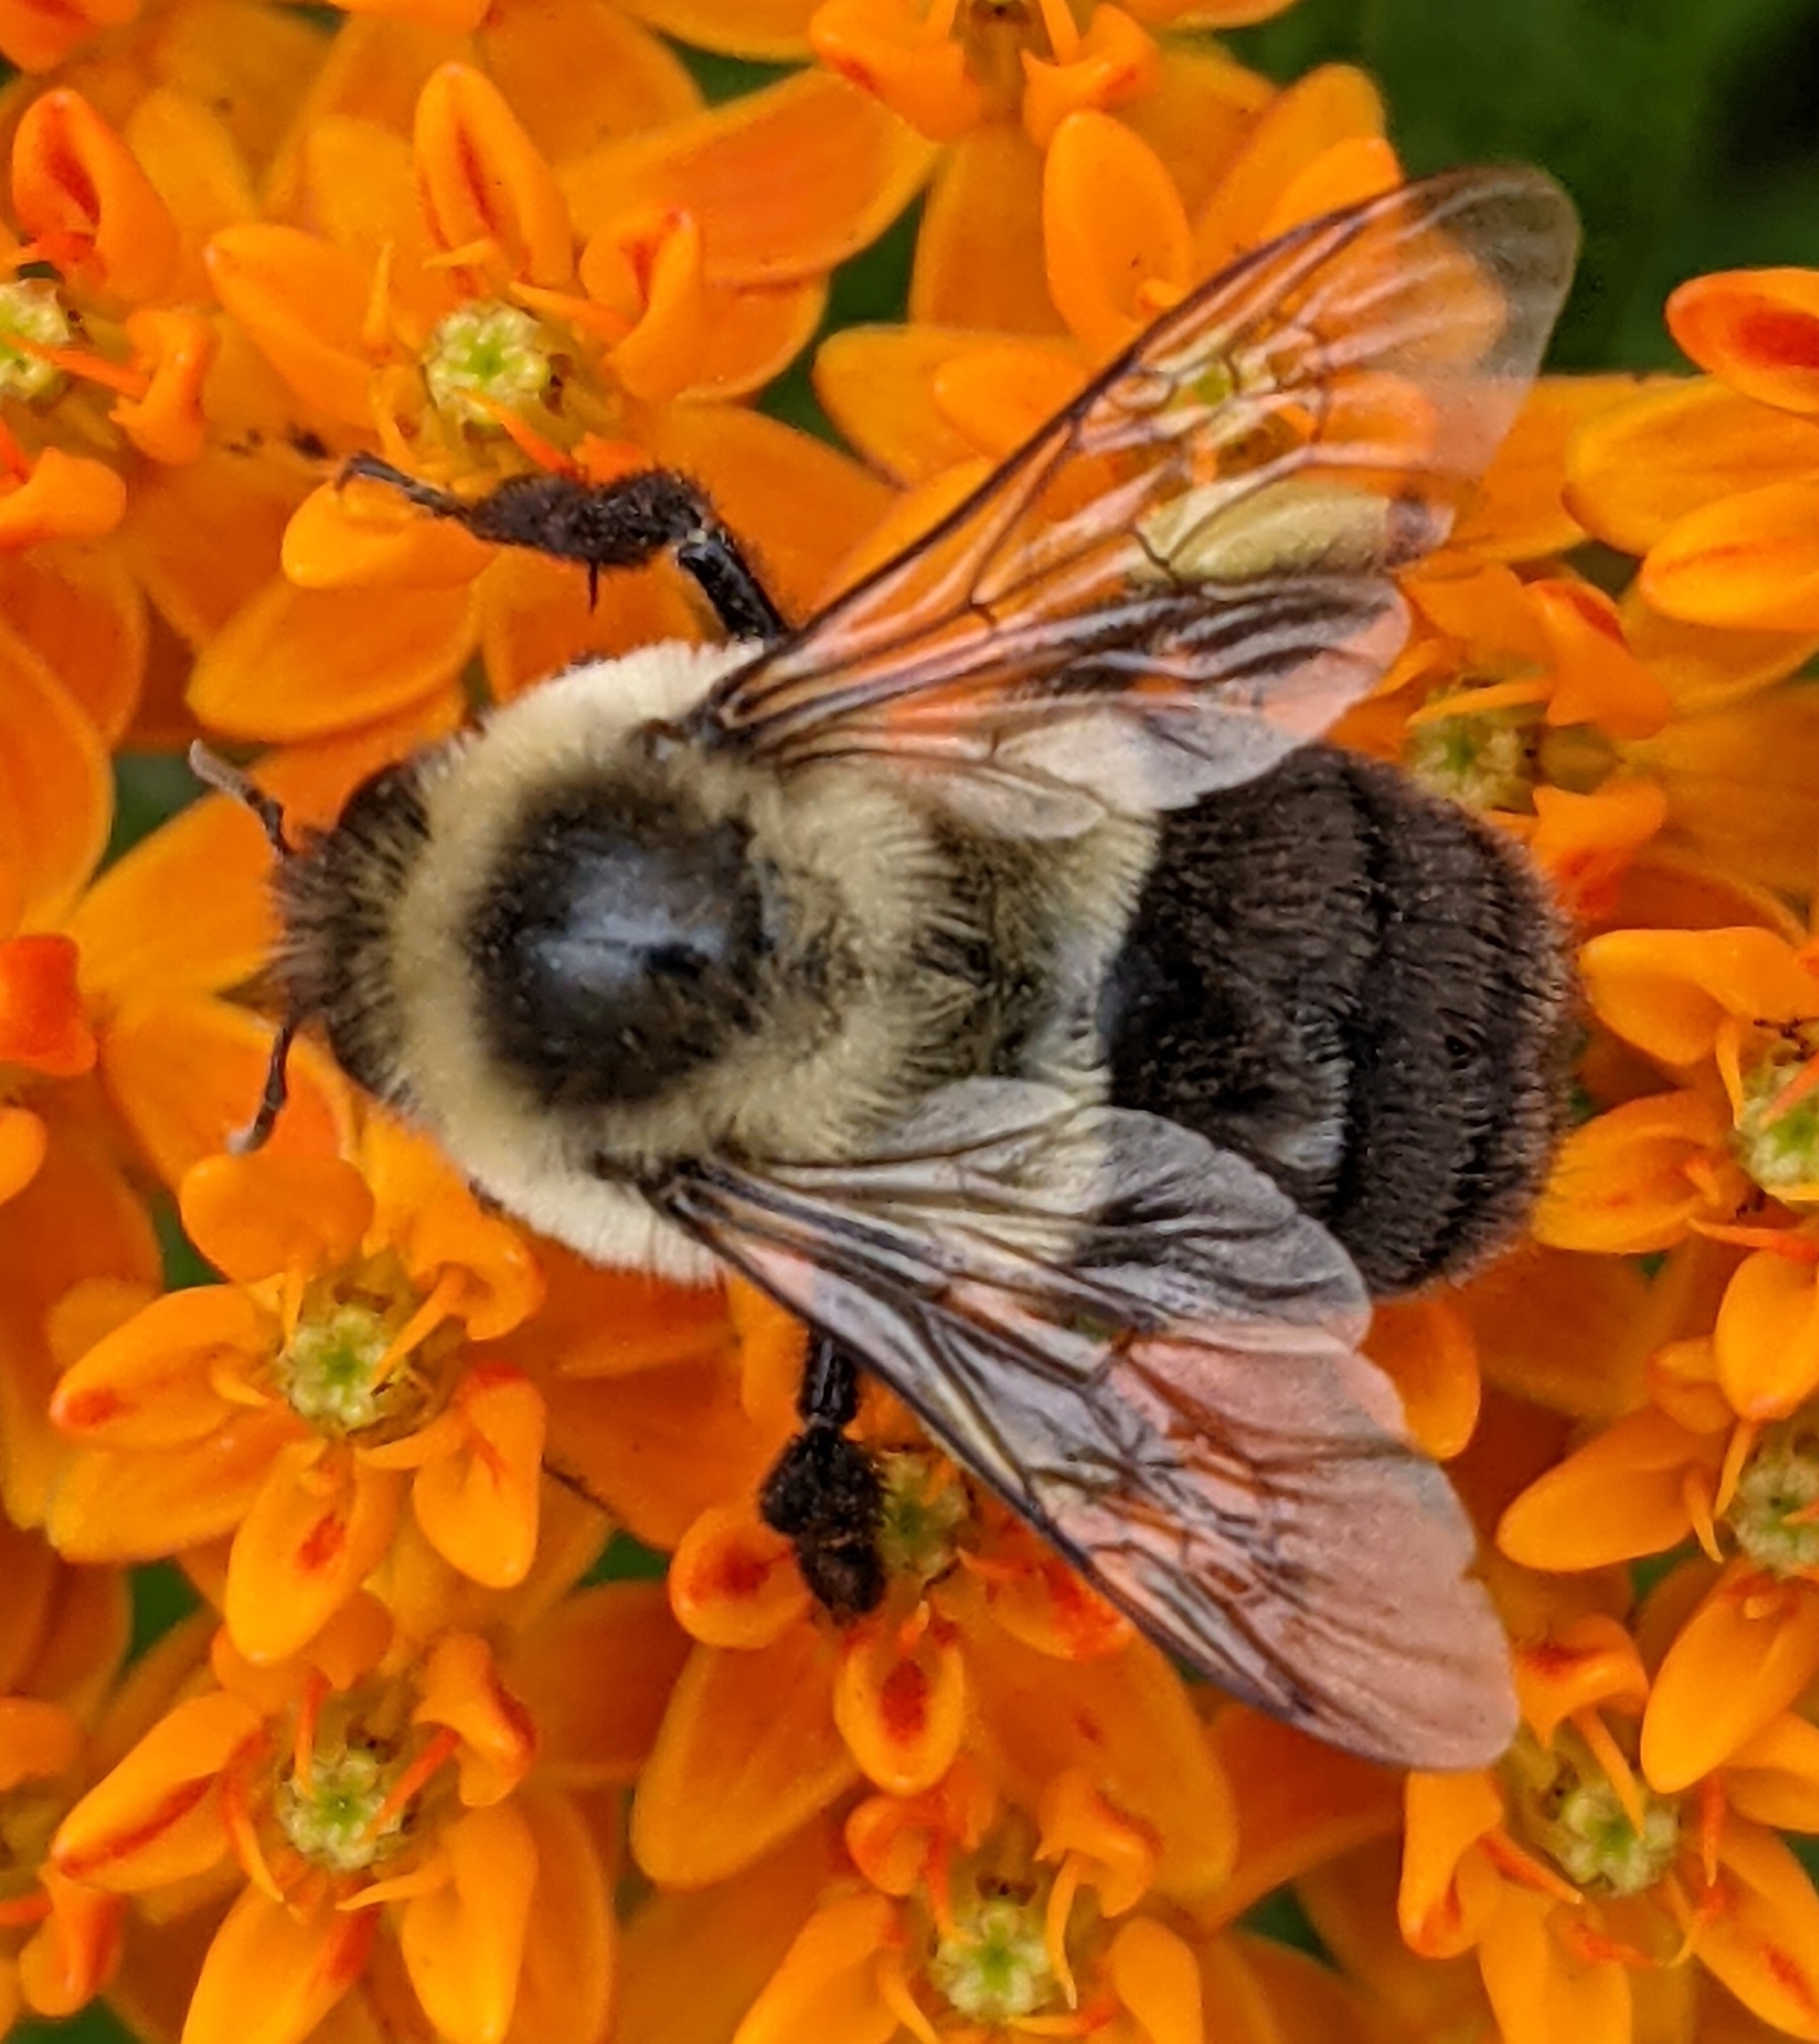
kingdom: Animalia
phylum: Arthropoda
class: Insecta
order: Hymenoptera
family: Apidae
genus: Bombus
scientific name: Bombus impatiens
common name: Common eastern bumble bee
